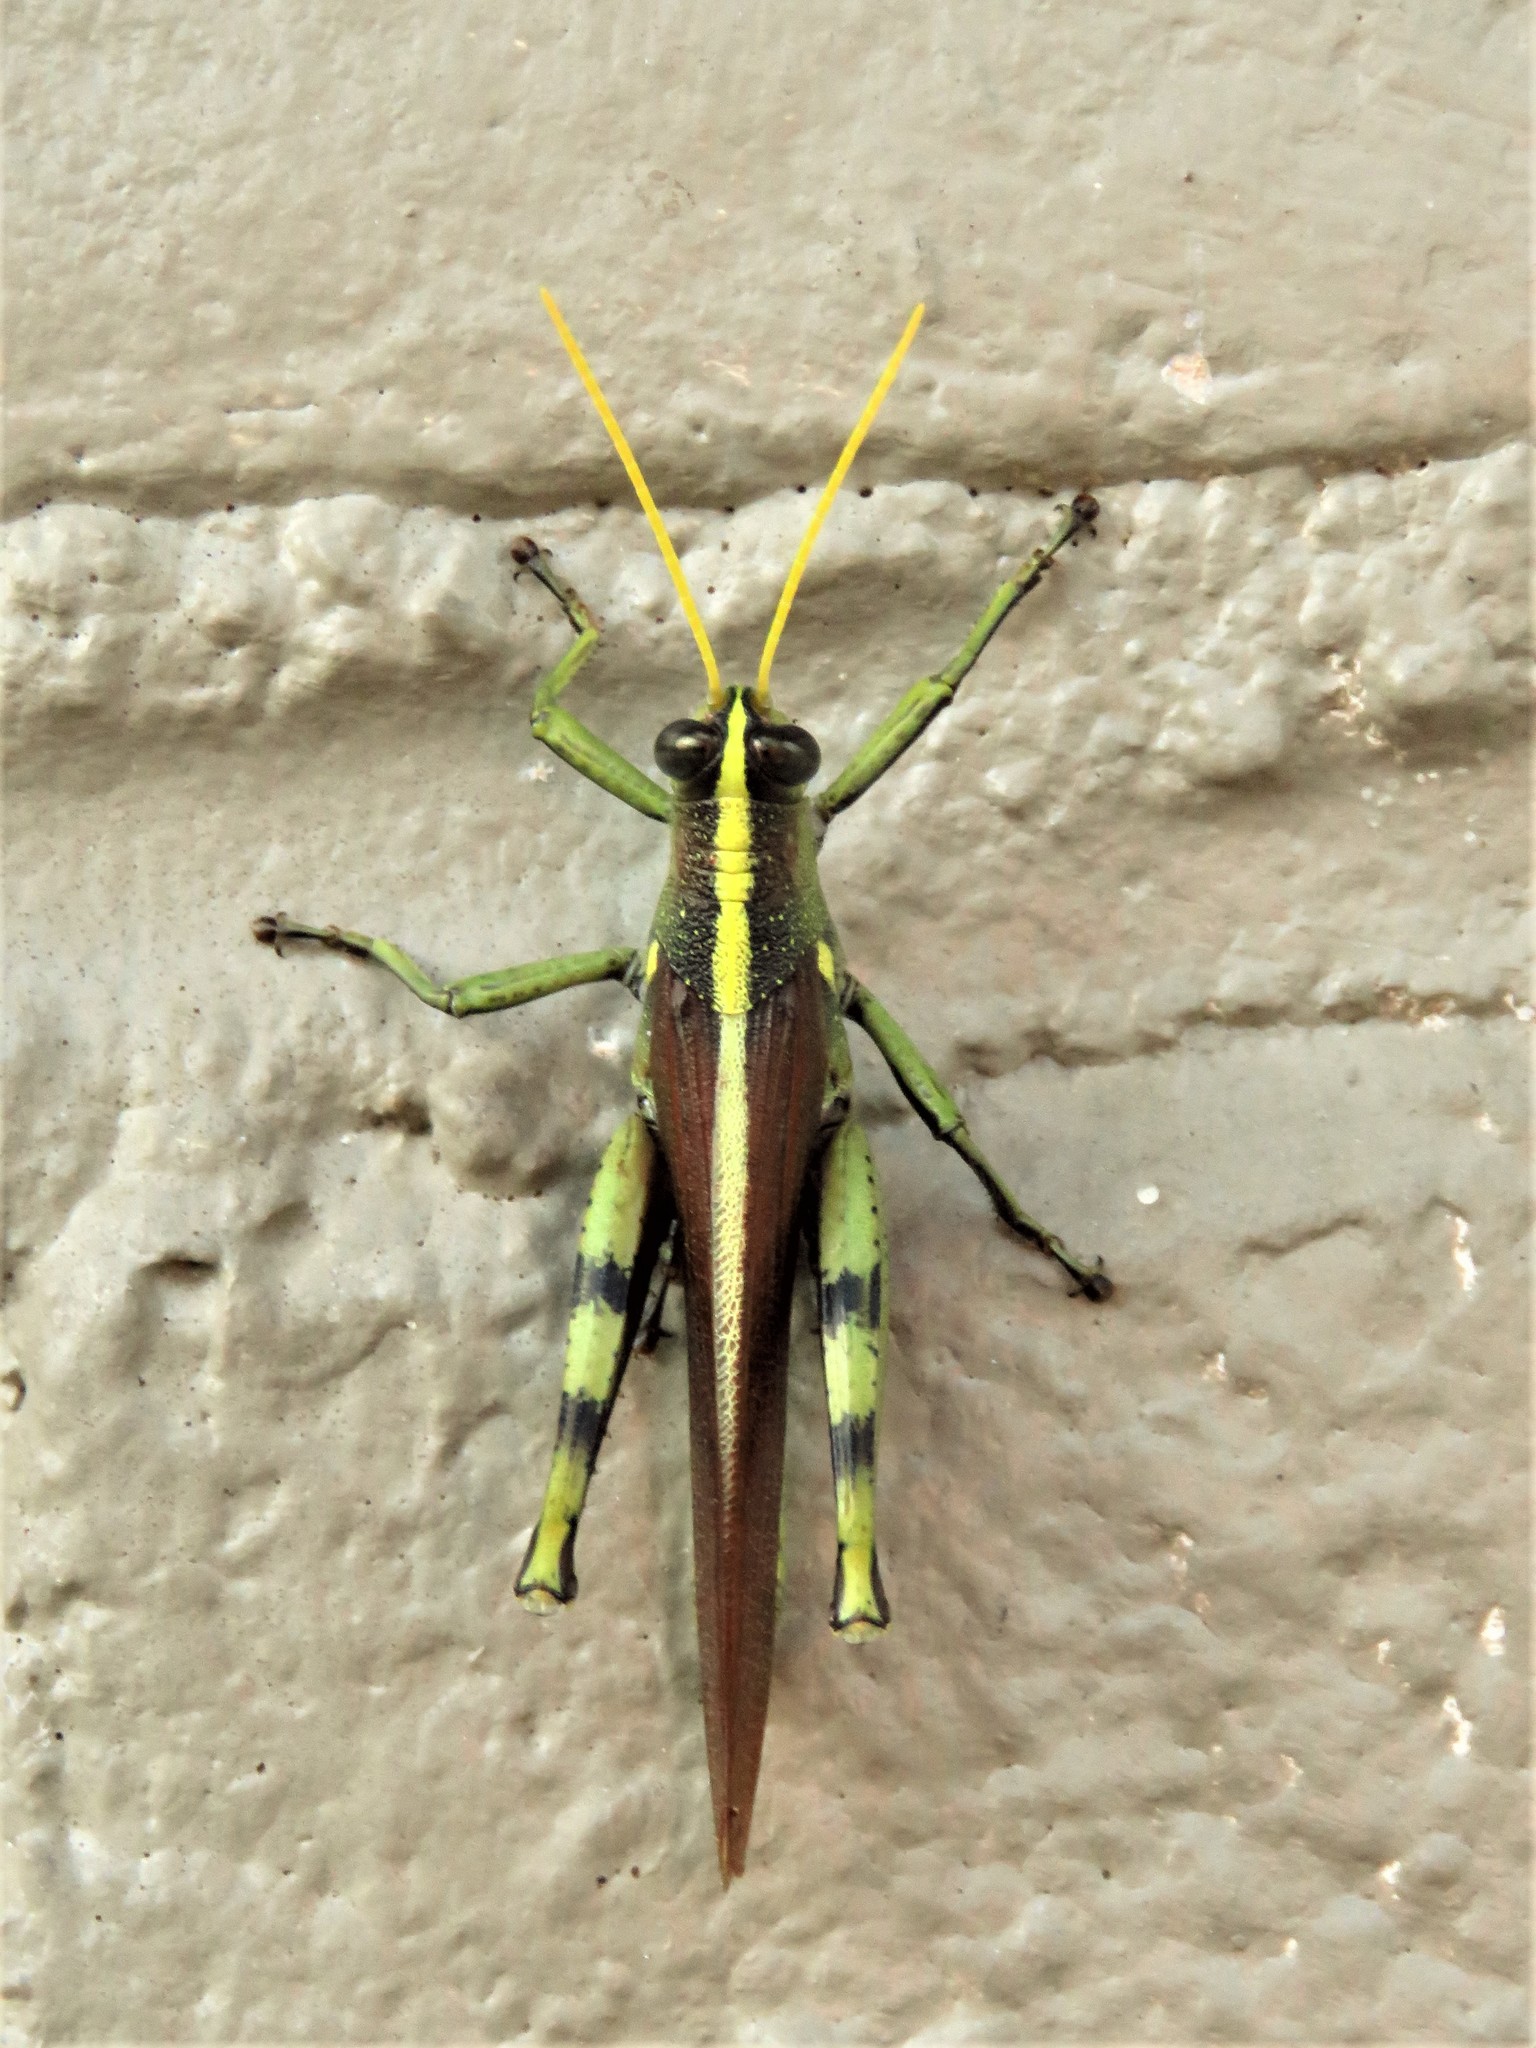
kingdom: Animalia
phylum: Arthropoda
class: Insecta
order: Orthoptera
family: Acrididae
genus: Schistocerca
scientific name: Schistocerca obscura
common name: Obscure bird grasshopper
